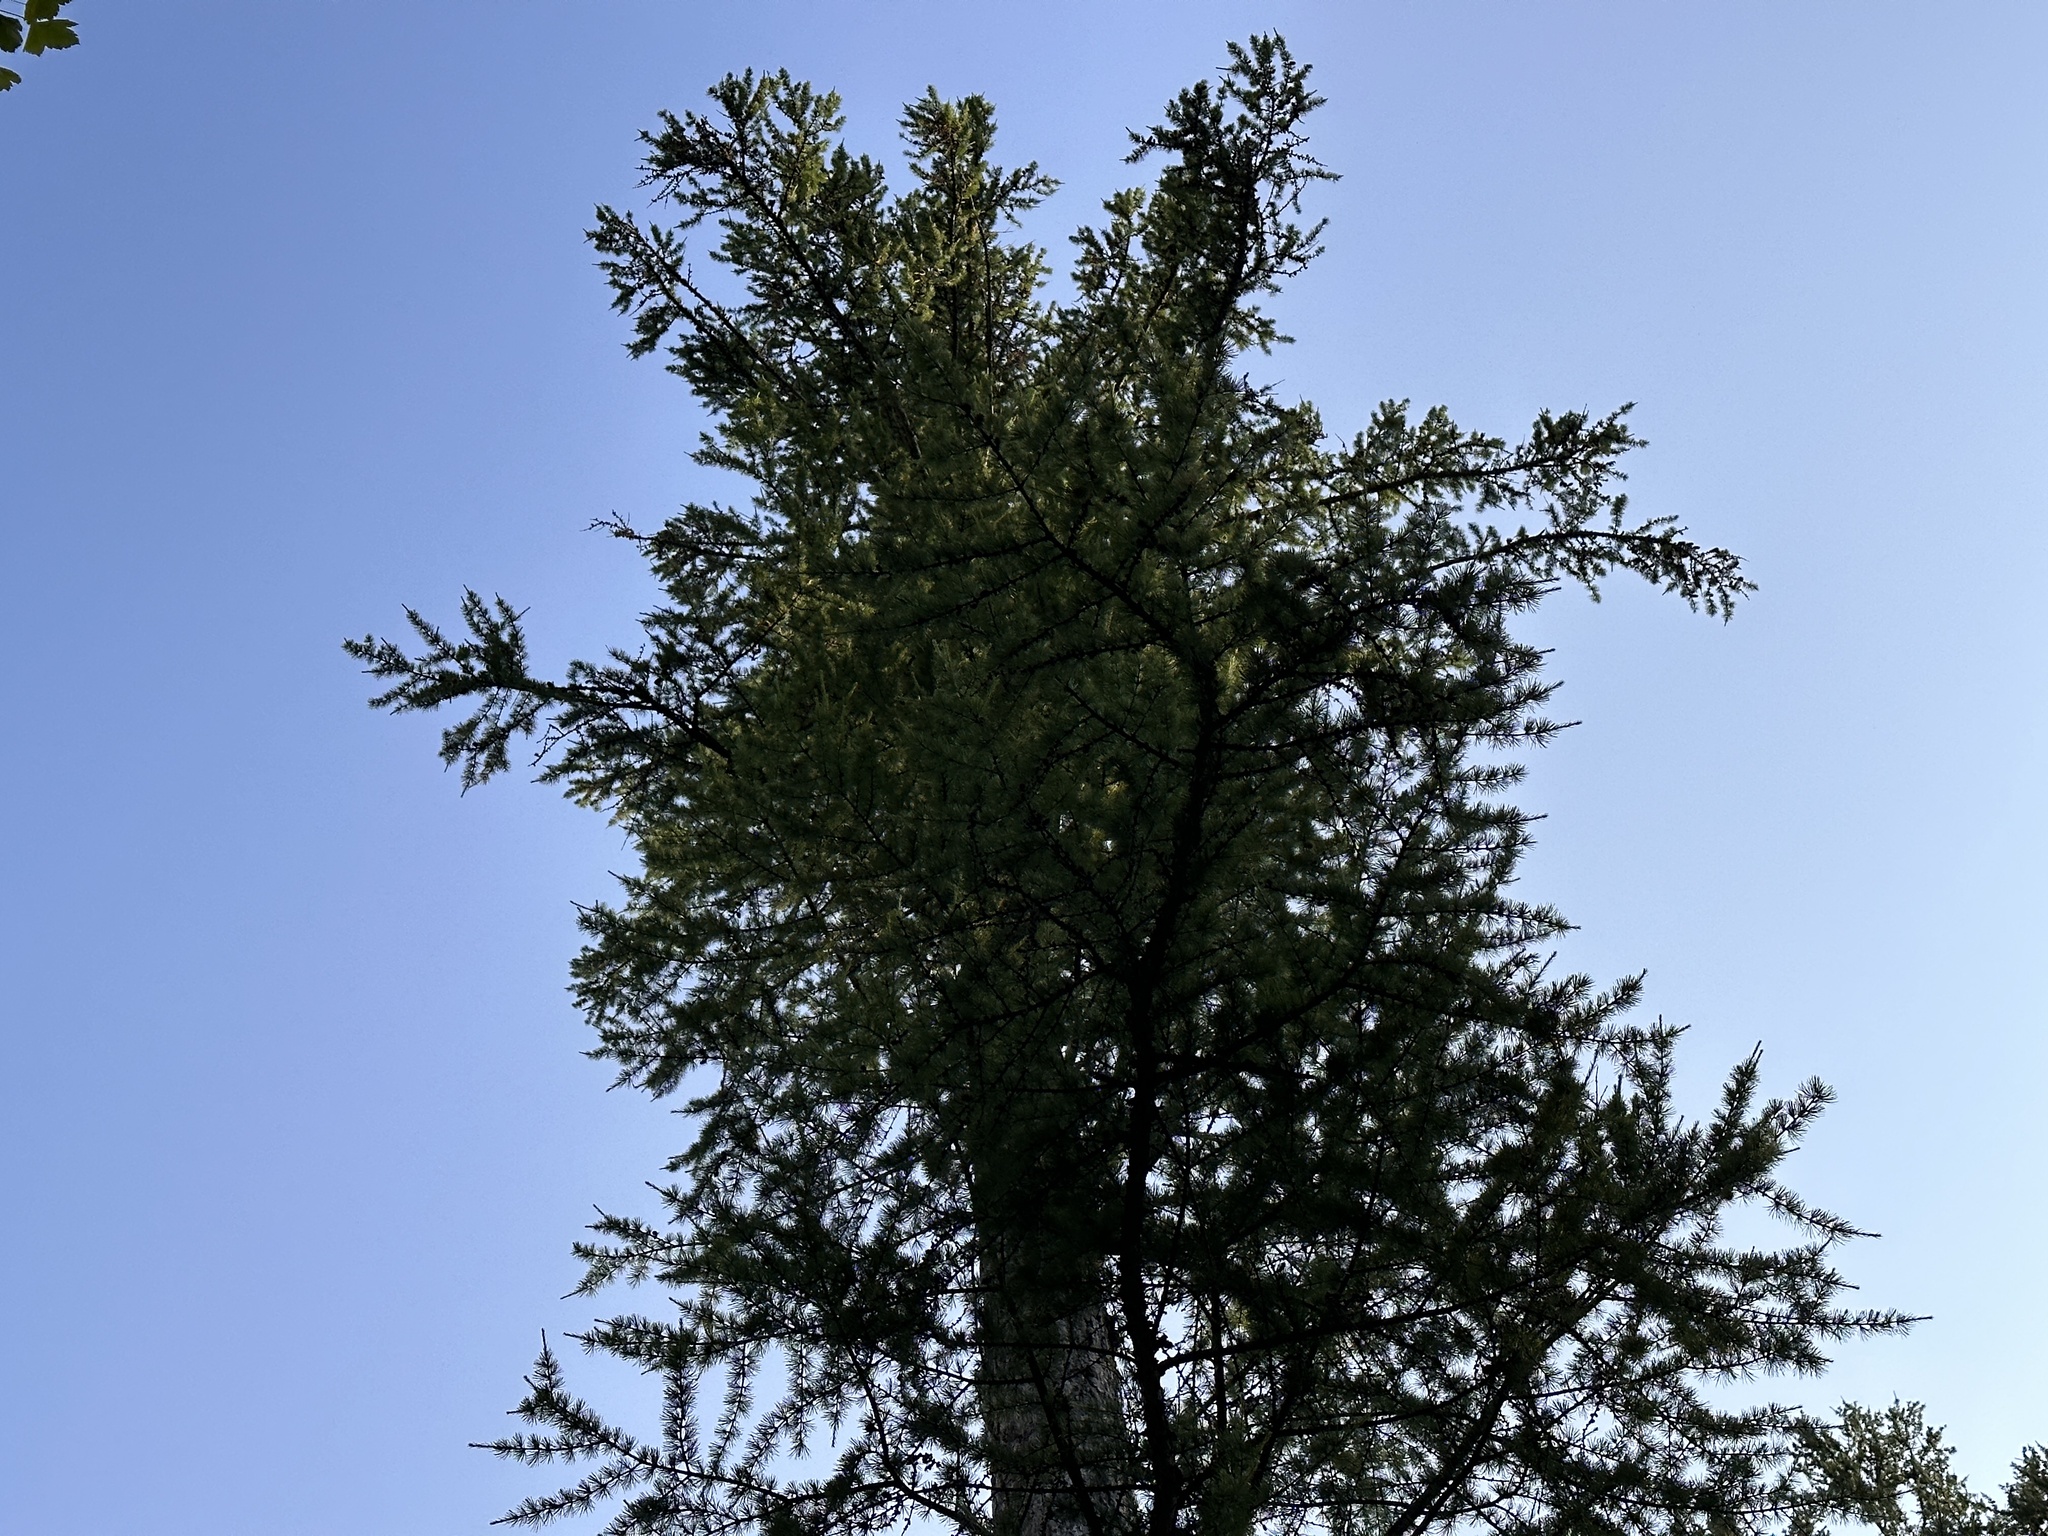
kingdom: Plantae
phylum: Tracheophyta
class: Pinopsida
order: Pinales
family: Pinaceae
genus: Larix
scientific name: Larix occidentalis
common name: Western larch
